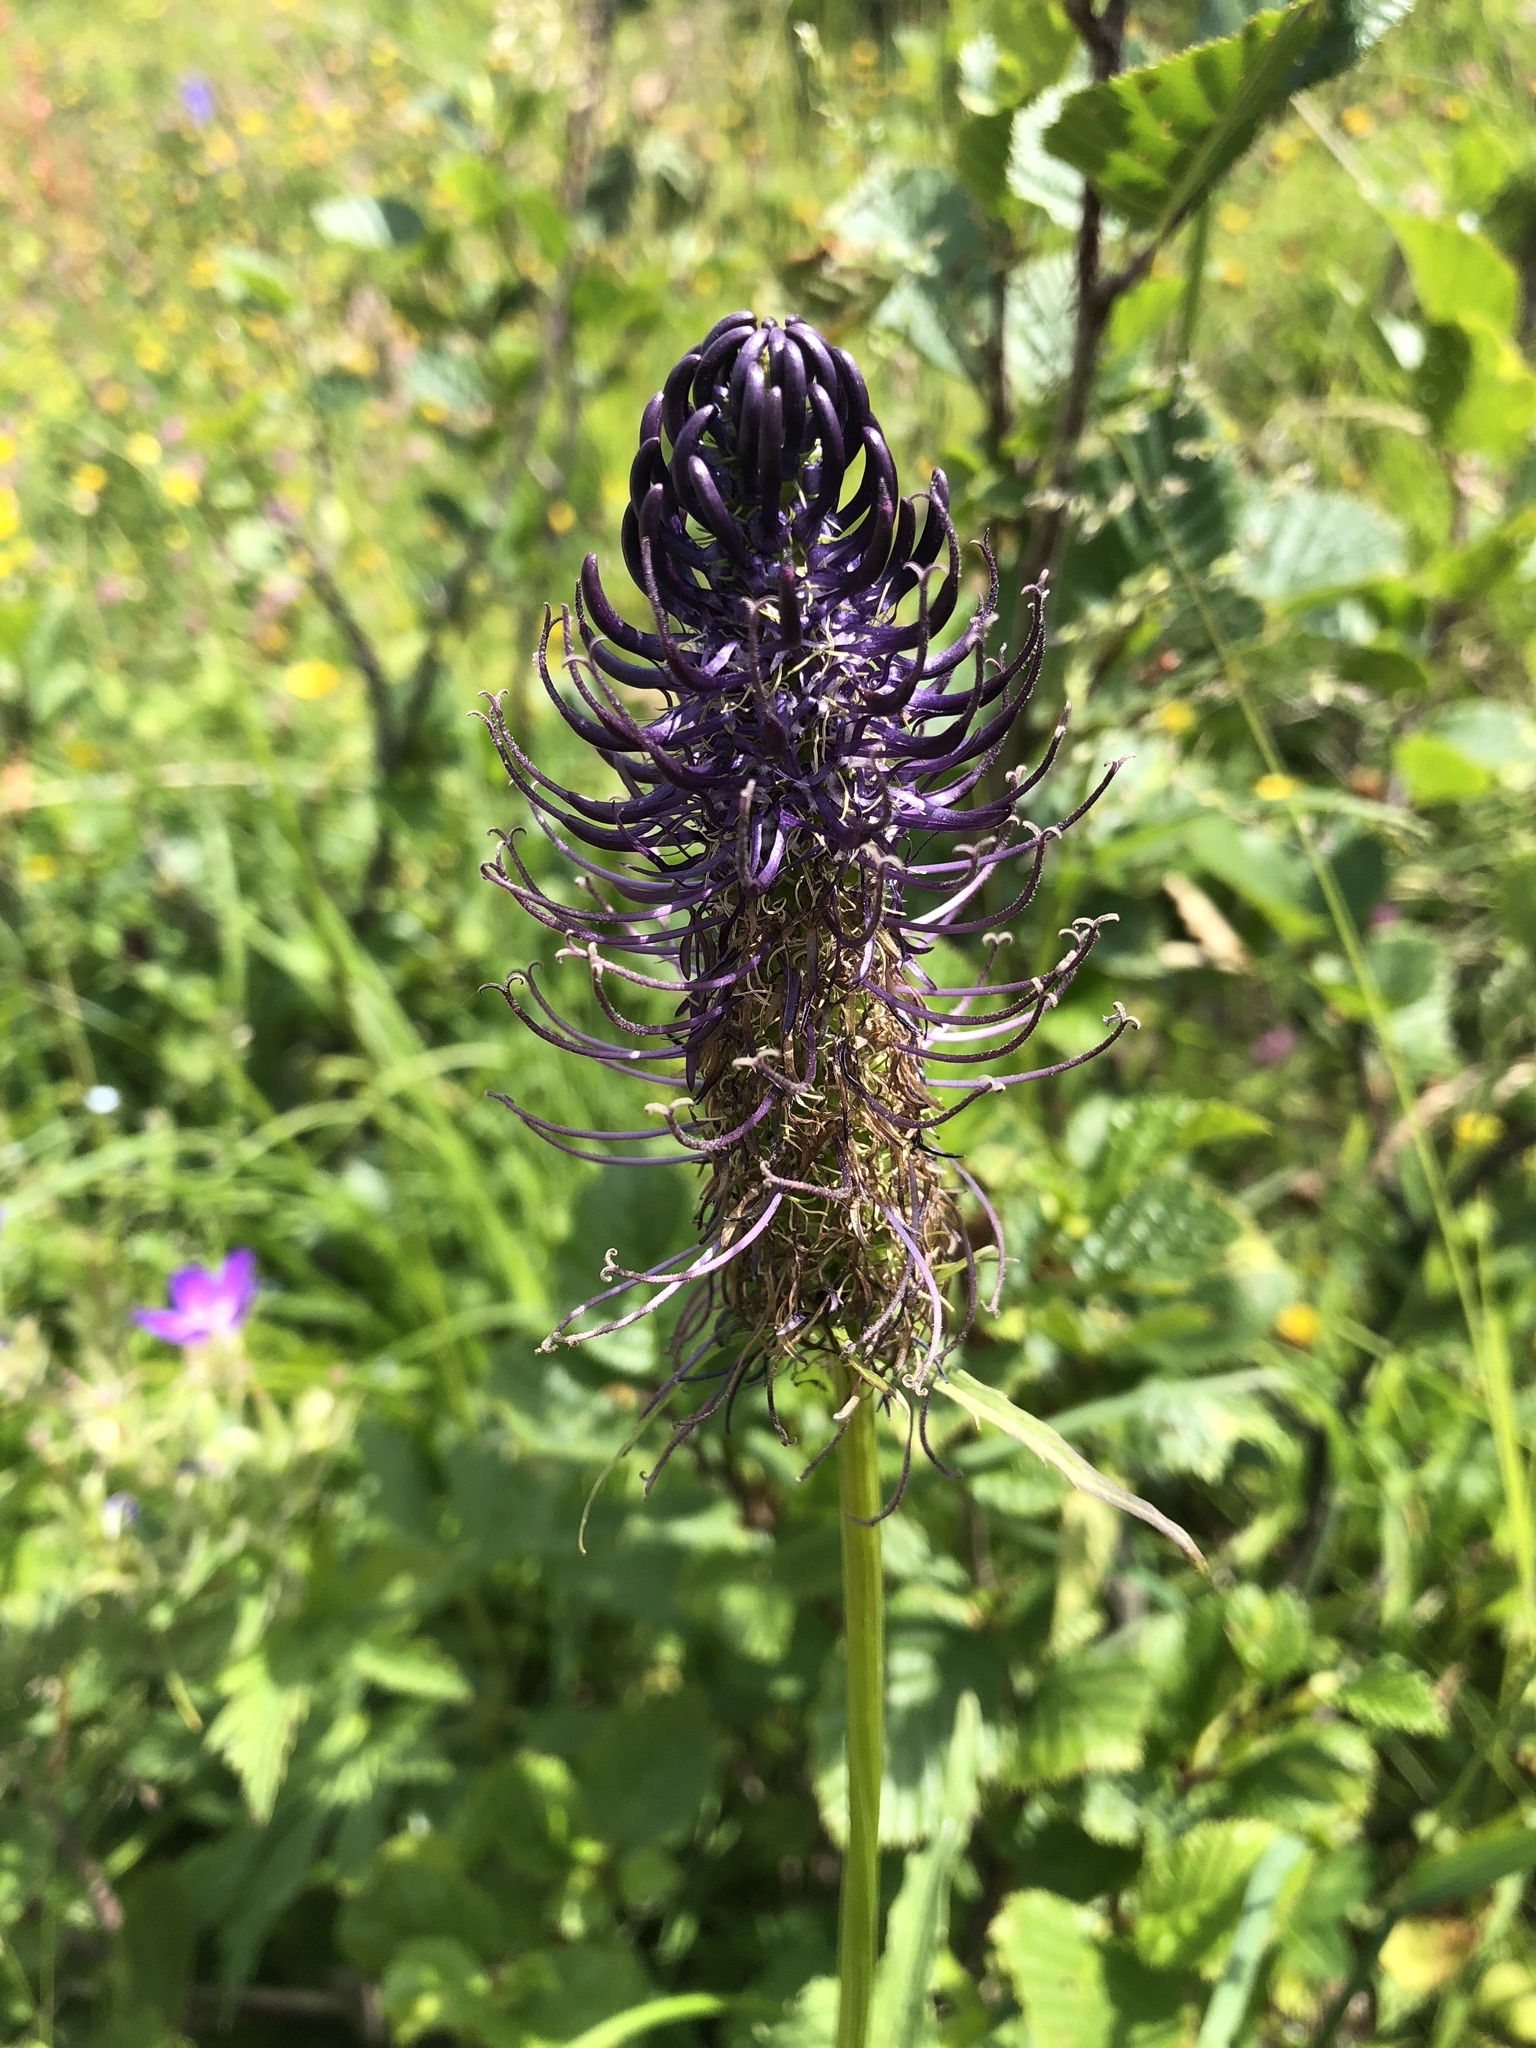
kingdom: Plantae
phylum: Tracheophyta
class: Magnoliopsida
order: Asterales
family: Campanulaceae
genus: Phyteuma
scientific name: Phyteuma ovatum
